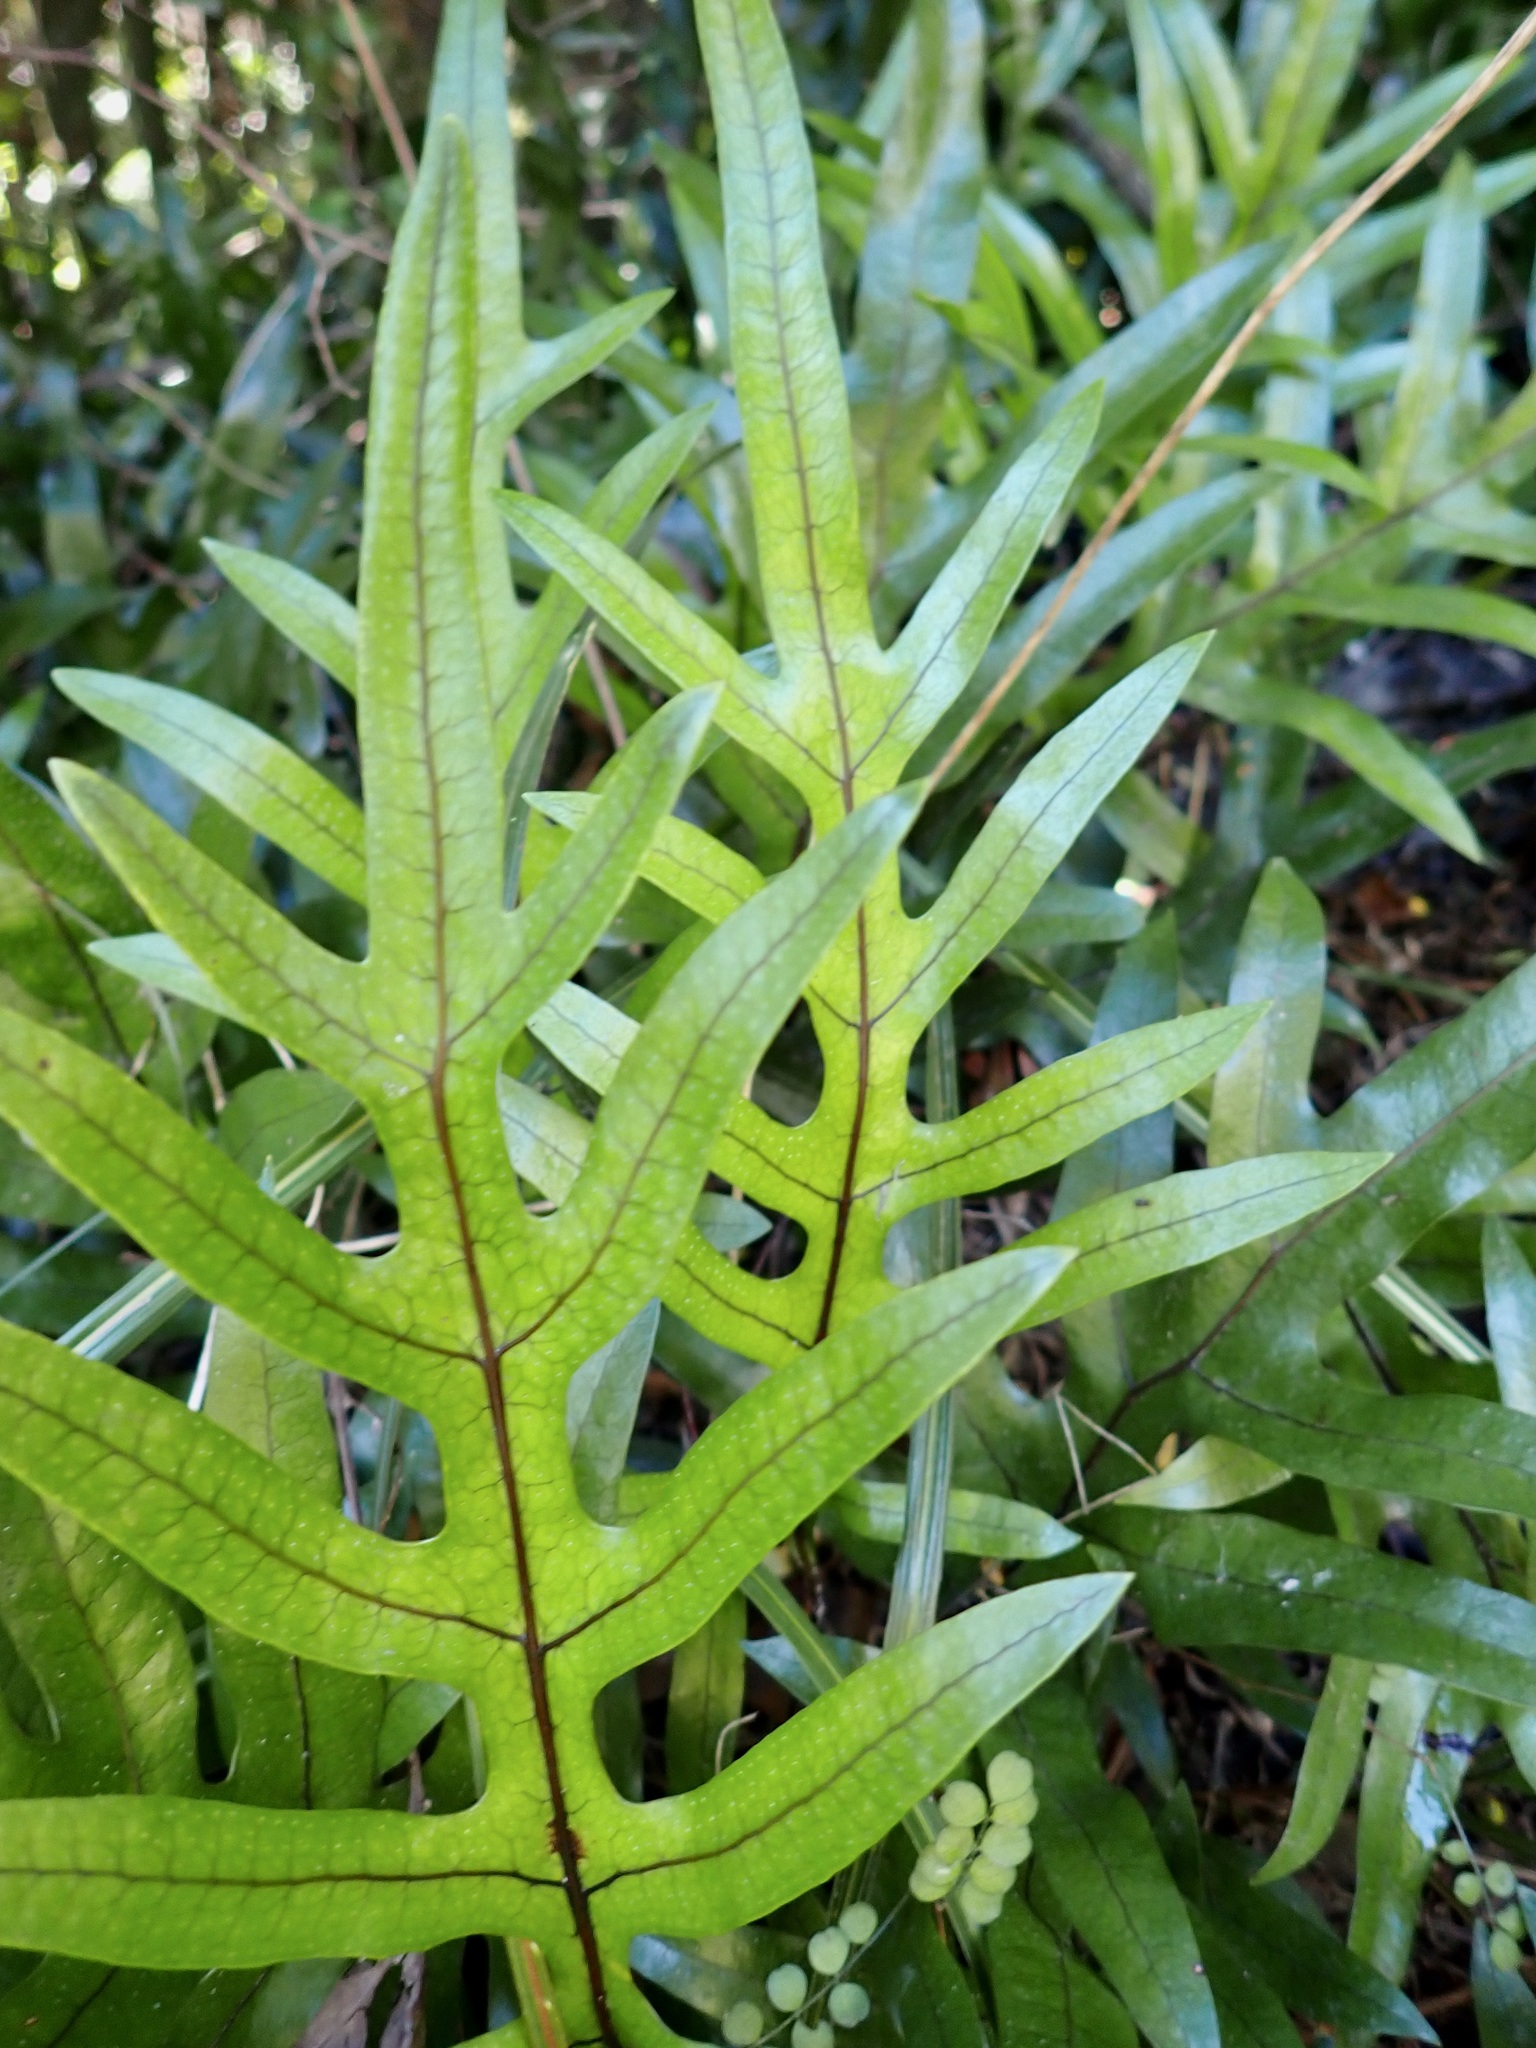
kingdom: Plantae
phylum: Tracheophyta
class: Polypodiopsida
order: Polypodiales
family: Polypodiaceae
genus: Lecanopteris
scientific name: Lecanopteris pustulata
